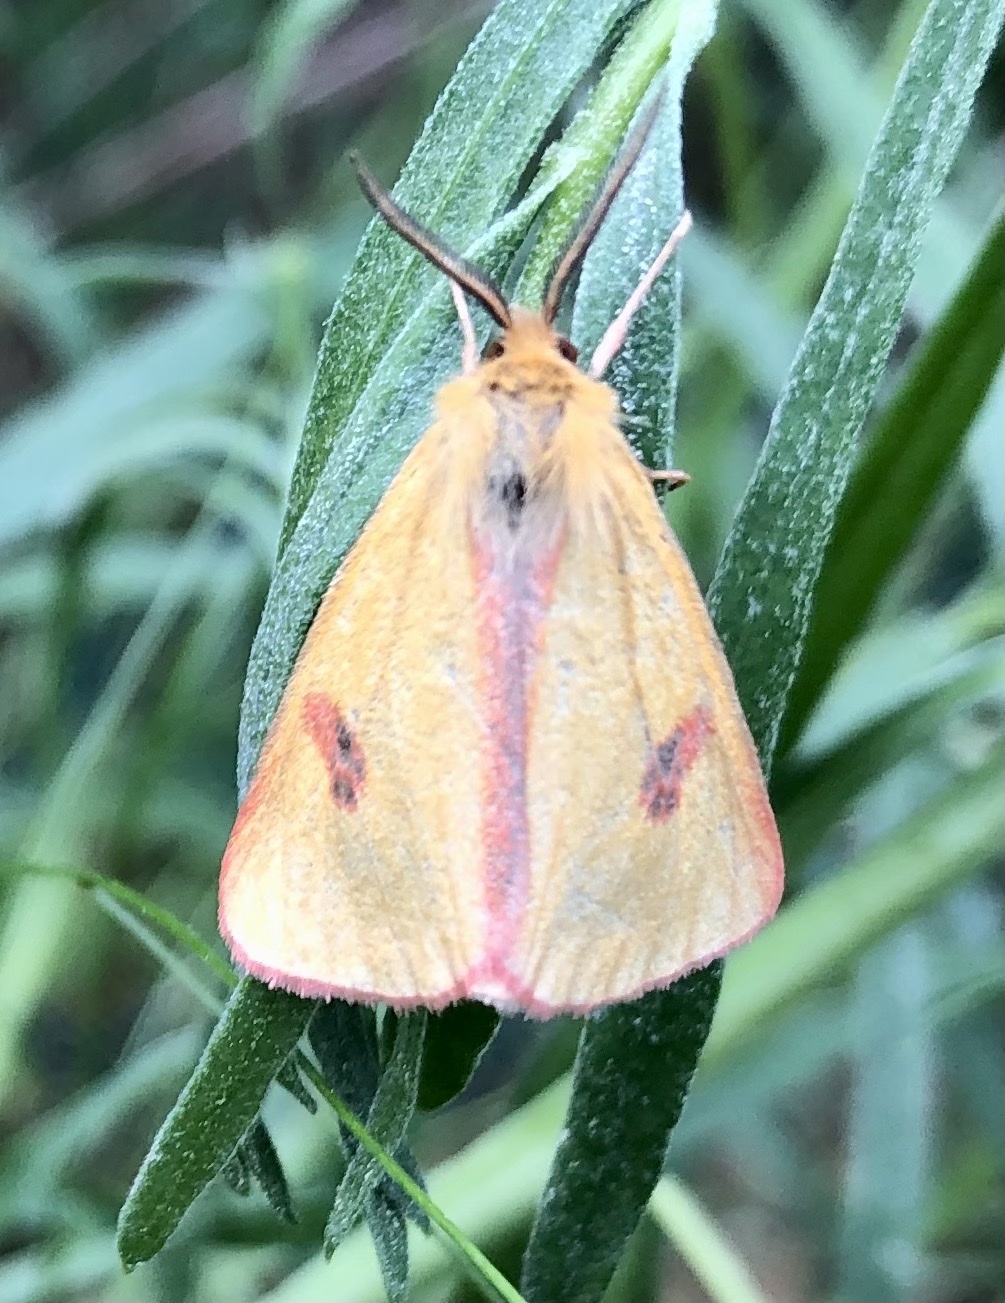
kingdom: Animalia
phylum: Arthropoda
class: Insecta
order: Lepidoptera
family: Erebidae
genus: Diacrisia
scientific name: Diacrisia sannio
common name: Clouded buff
